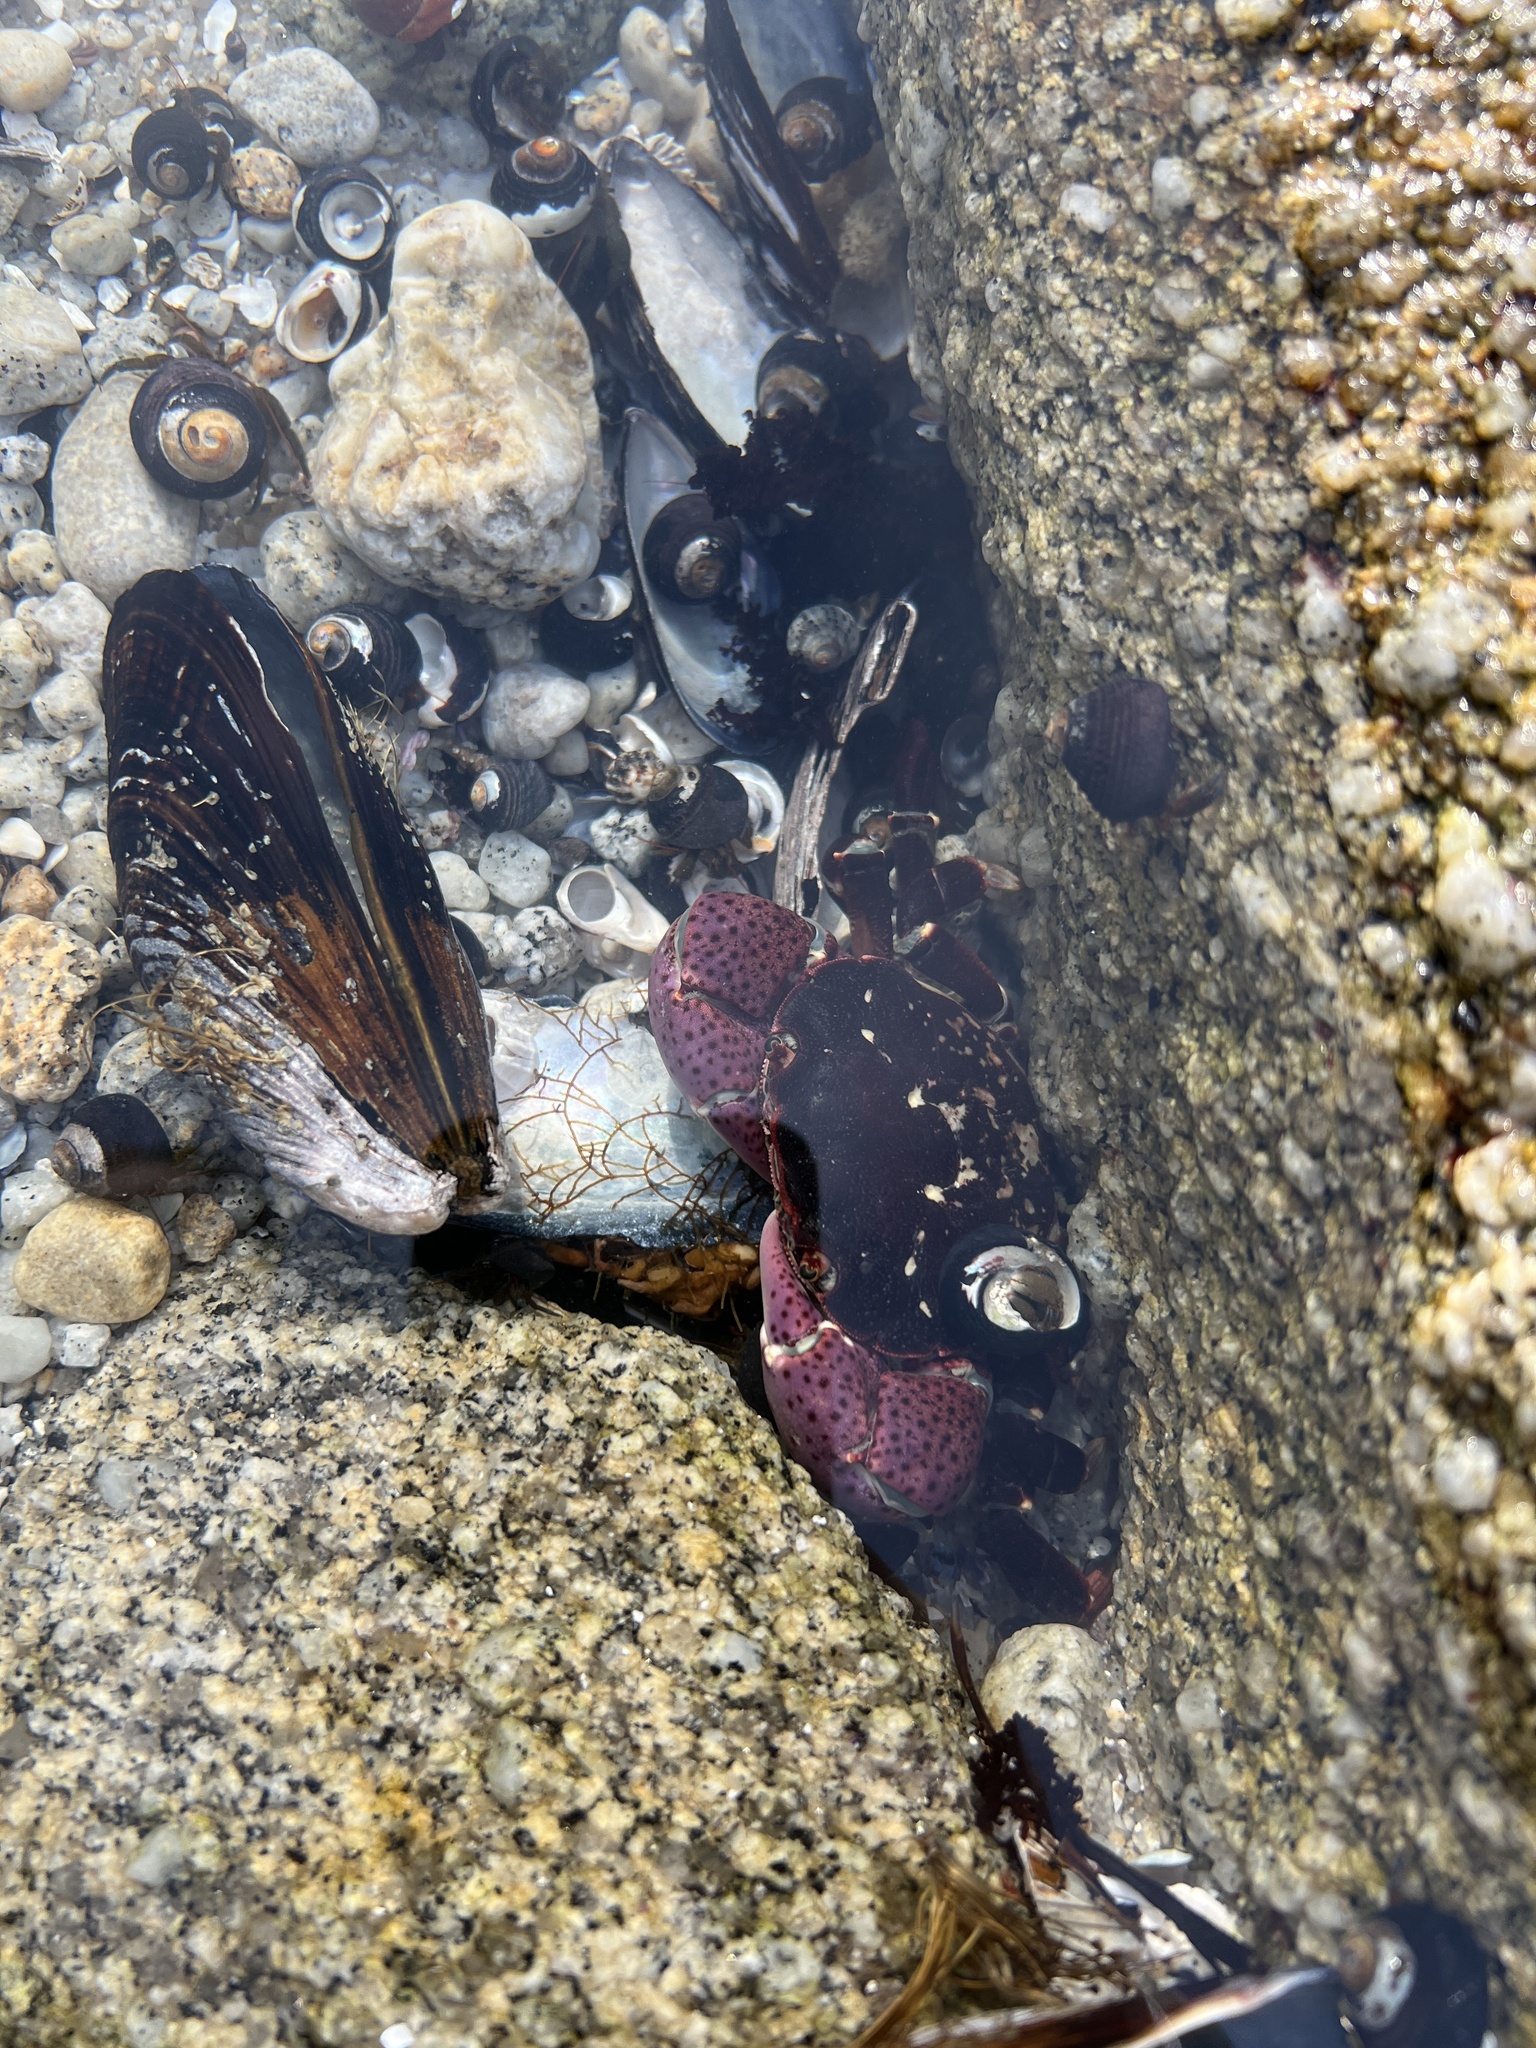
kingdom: Animalia
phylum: Arthropoda
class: Malacostraca
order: Decapoda
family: Varunidae
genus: Hemigrapsus
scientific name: Hemigrapsus nudus
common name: Purple shore crab
